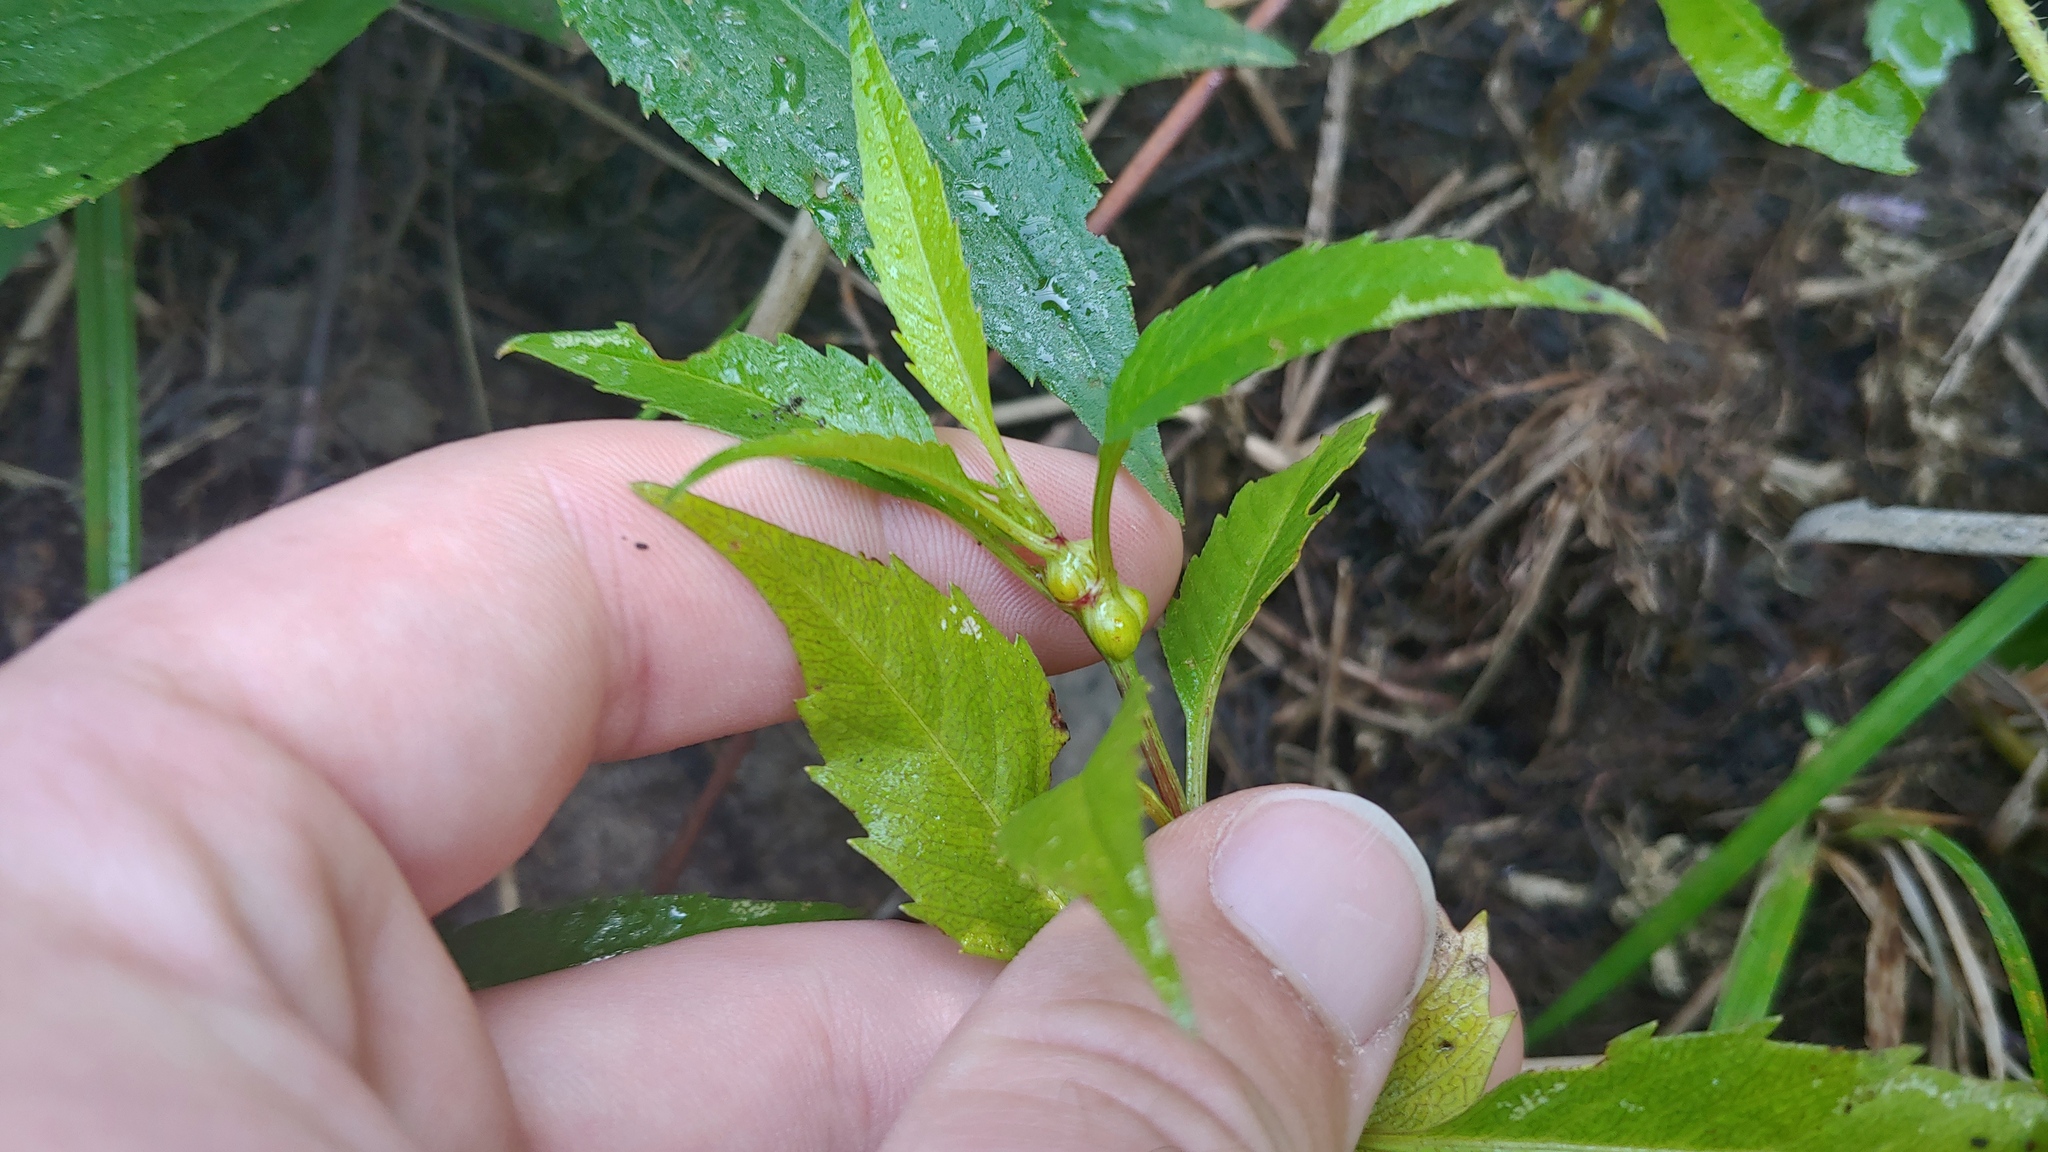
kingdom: Animalia
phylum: Arthropoda
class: Insecta
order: Diptera
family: Cecidomyiidae
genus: Asphondylia
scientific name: Asphondylia ovata
